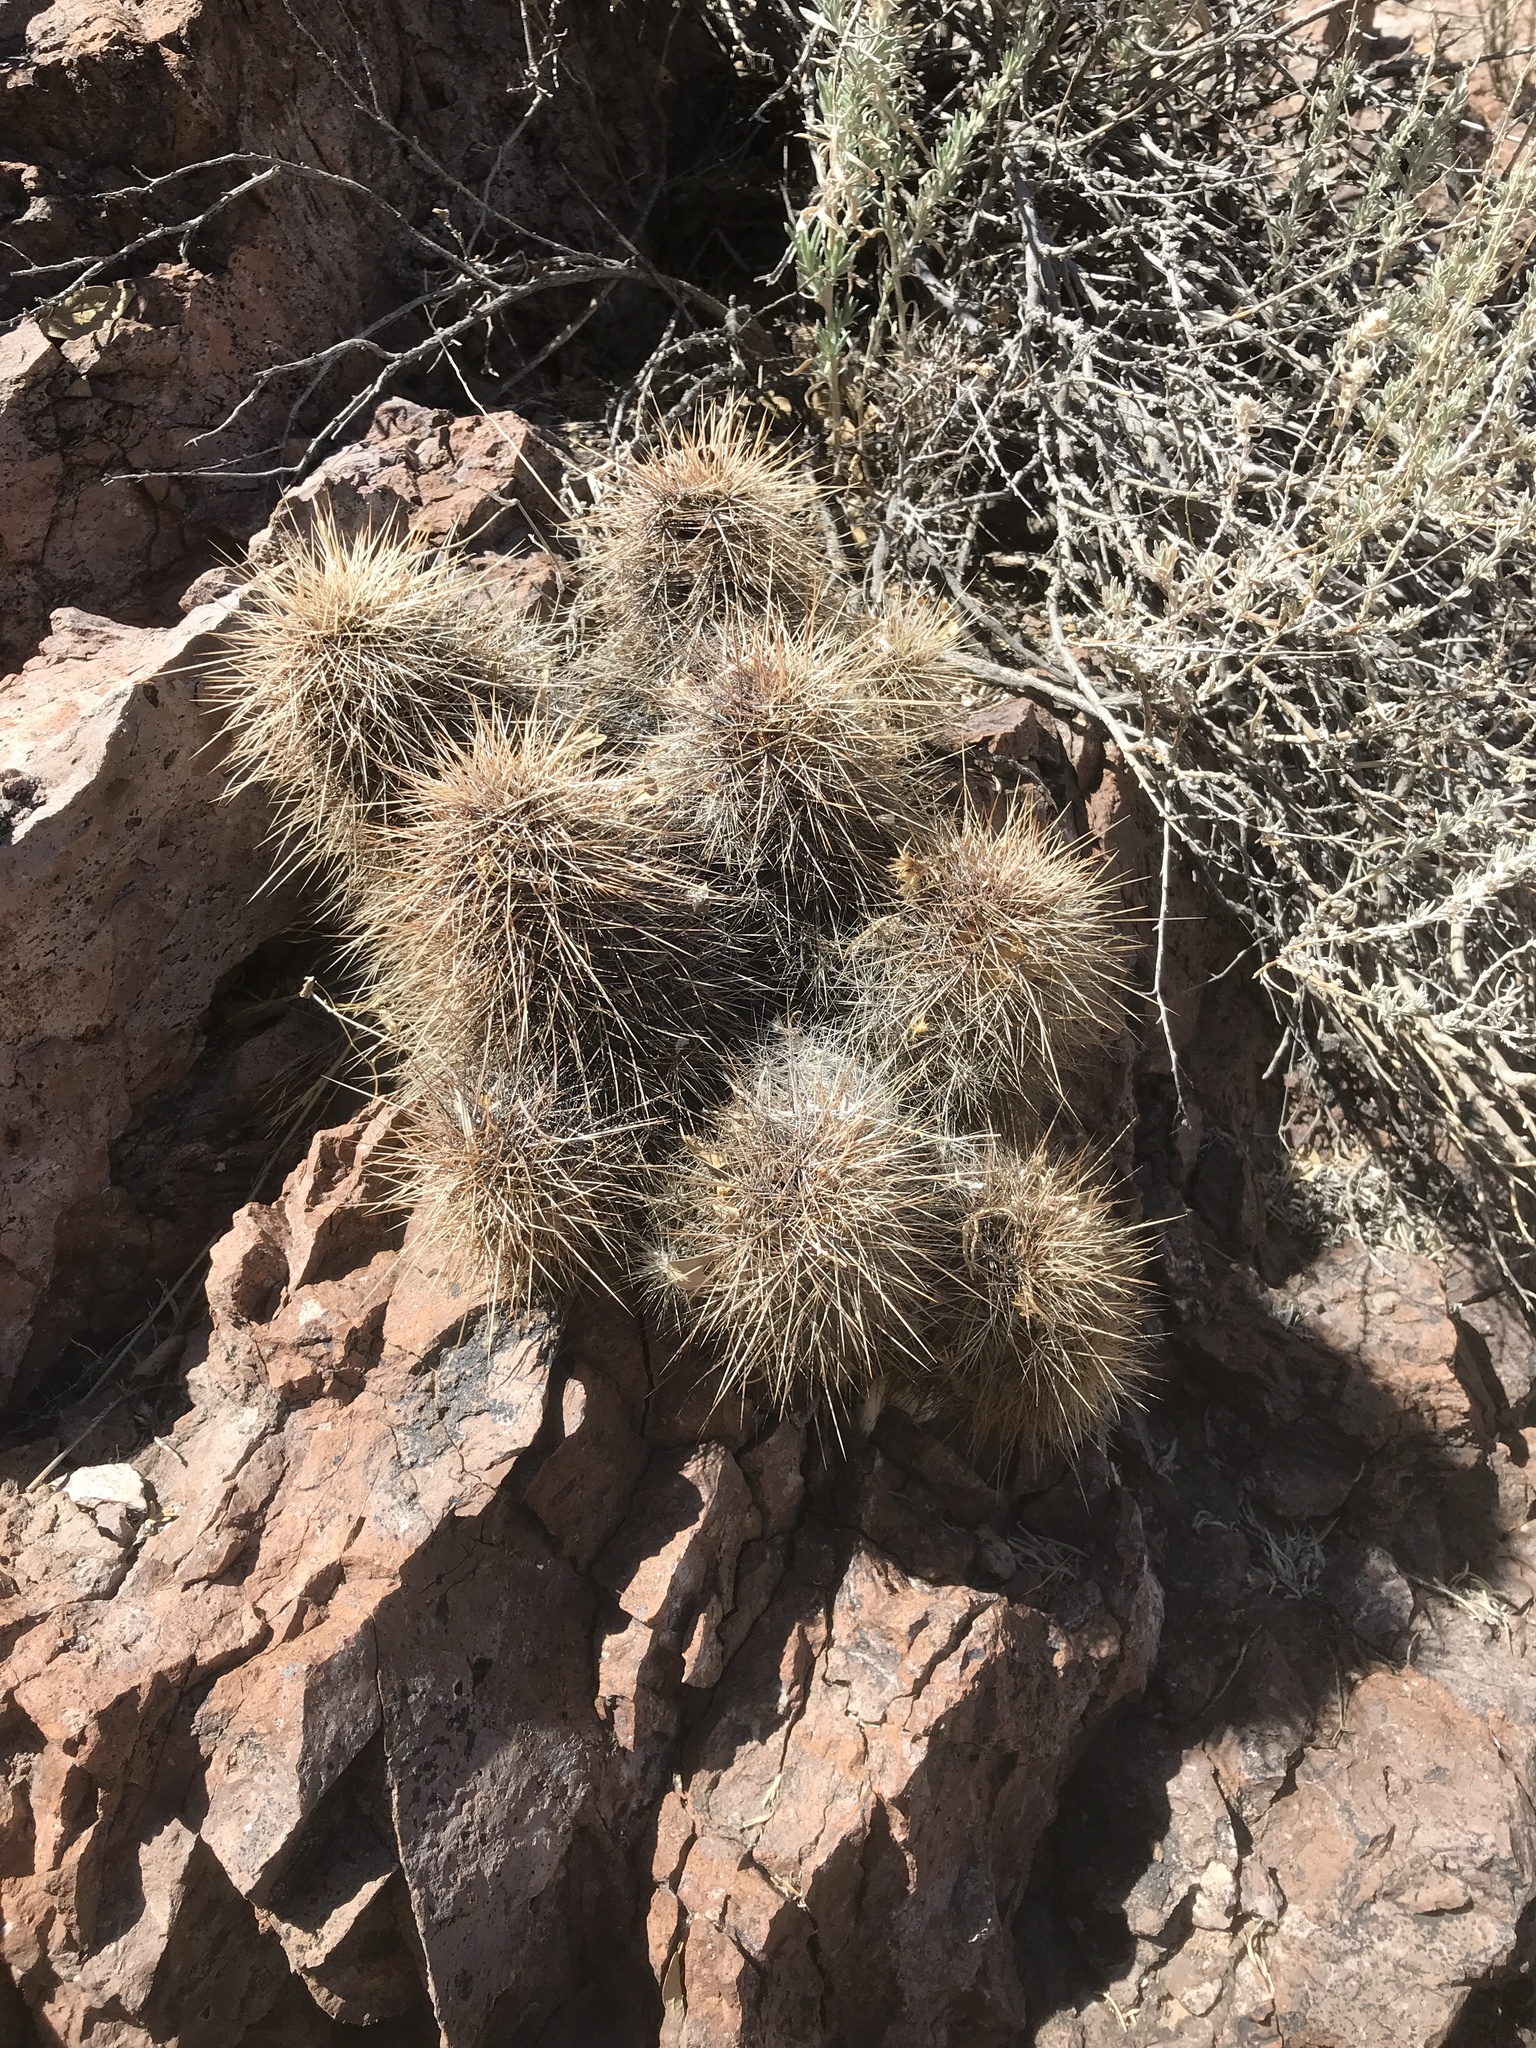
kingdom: Plantae
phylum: Tracheophyta
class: Magnoliopsida
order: Caryophyllales
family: Cactaceae
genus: Echinocereus
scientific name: Echinocereus coccineus
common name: Scarlet hedgehog cactus
